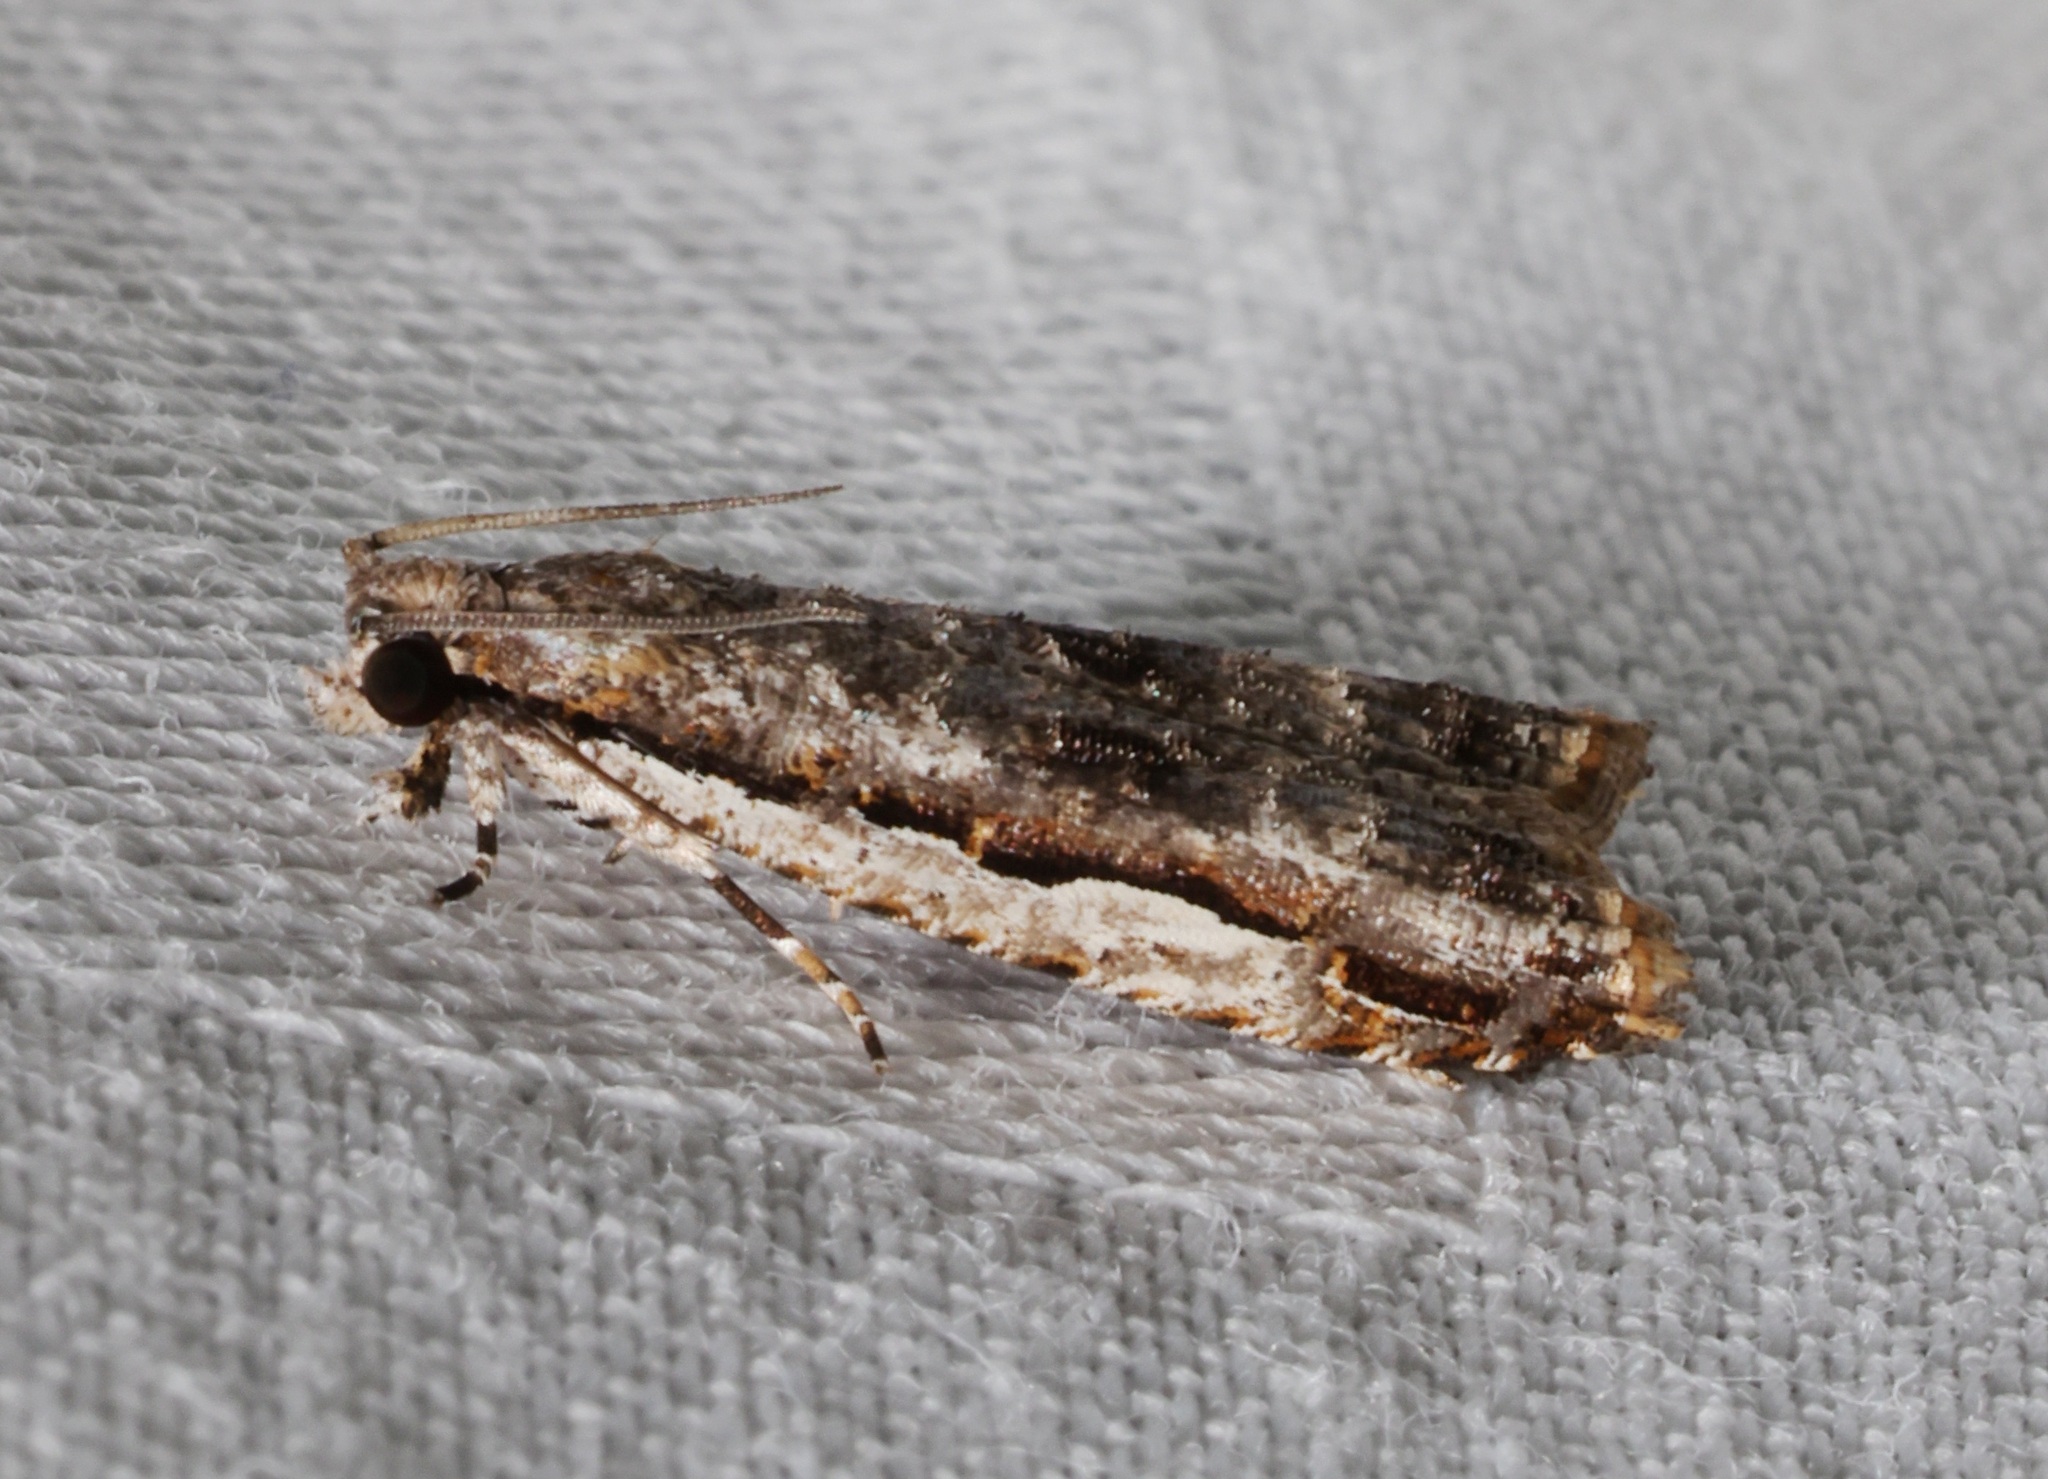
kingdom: Animalia
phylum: Arthropoda
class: Insecta
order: Lepidoptera
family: Tortricidae
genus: Phricanthes
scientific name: Phricanthes flexilineana
